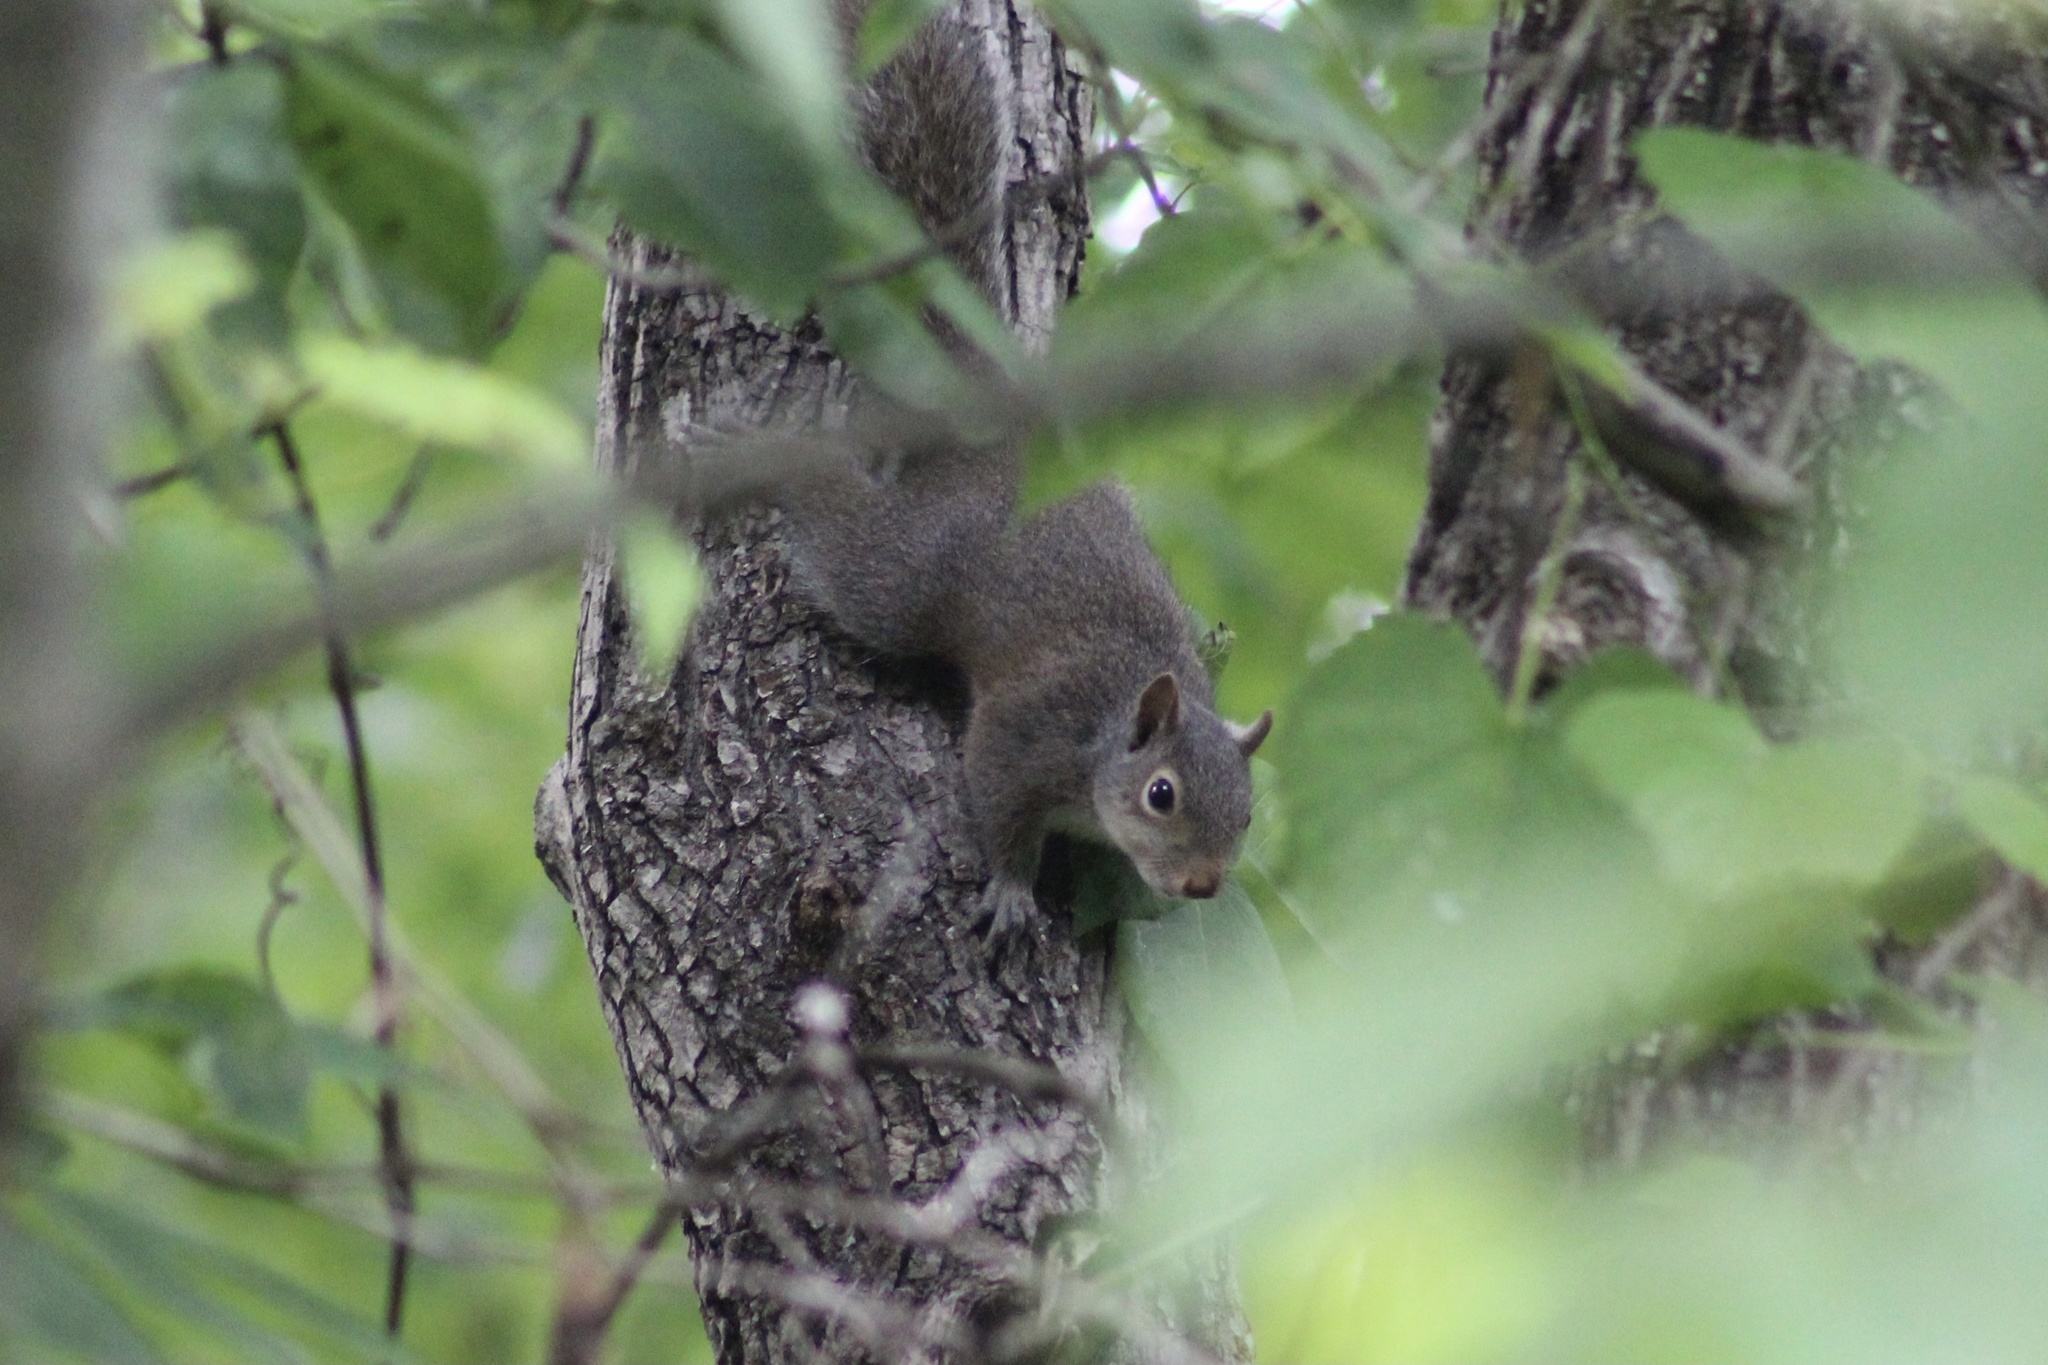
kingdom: Animalia
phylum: Chordata
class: Mammalia
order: Rodentia
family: Sciuridae
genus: Sciurus
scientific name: Sciurus carolinensis
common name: Eastern gray squirrel
